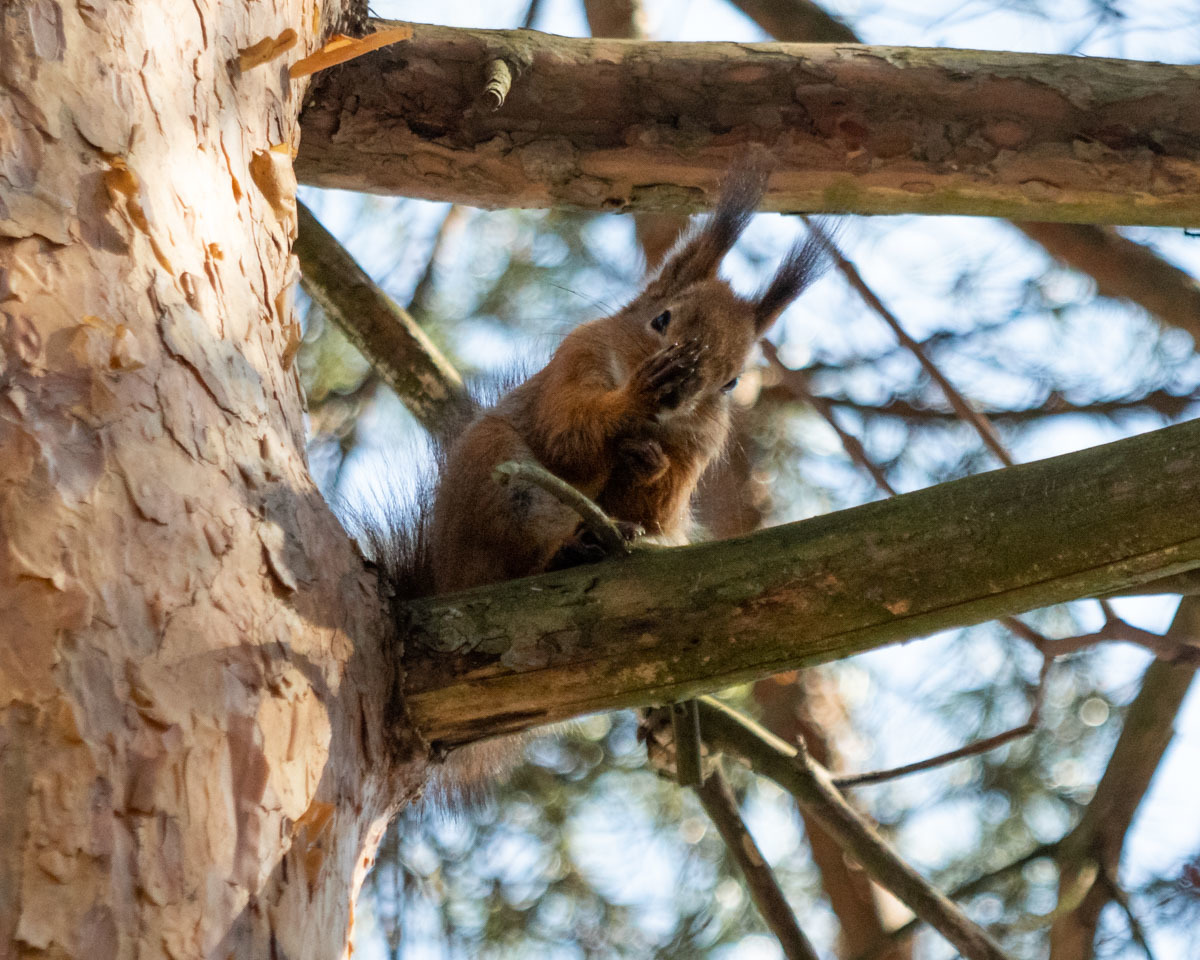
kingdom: Animalia
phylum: Chordata
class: Mammalia
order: Rodentia
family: Sciuridae
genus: Sciurus
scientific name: Sciurus vulgaris
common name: Eurasian red squirrel
